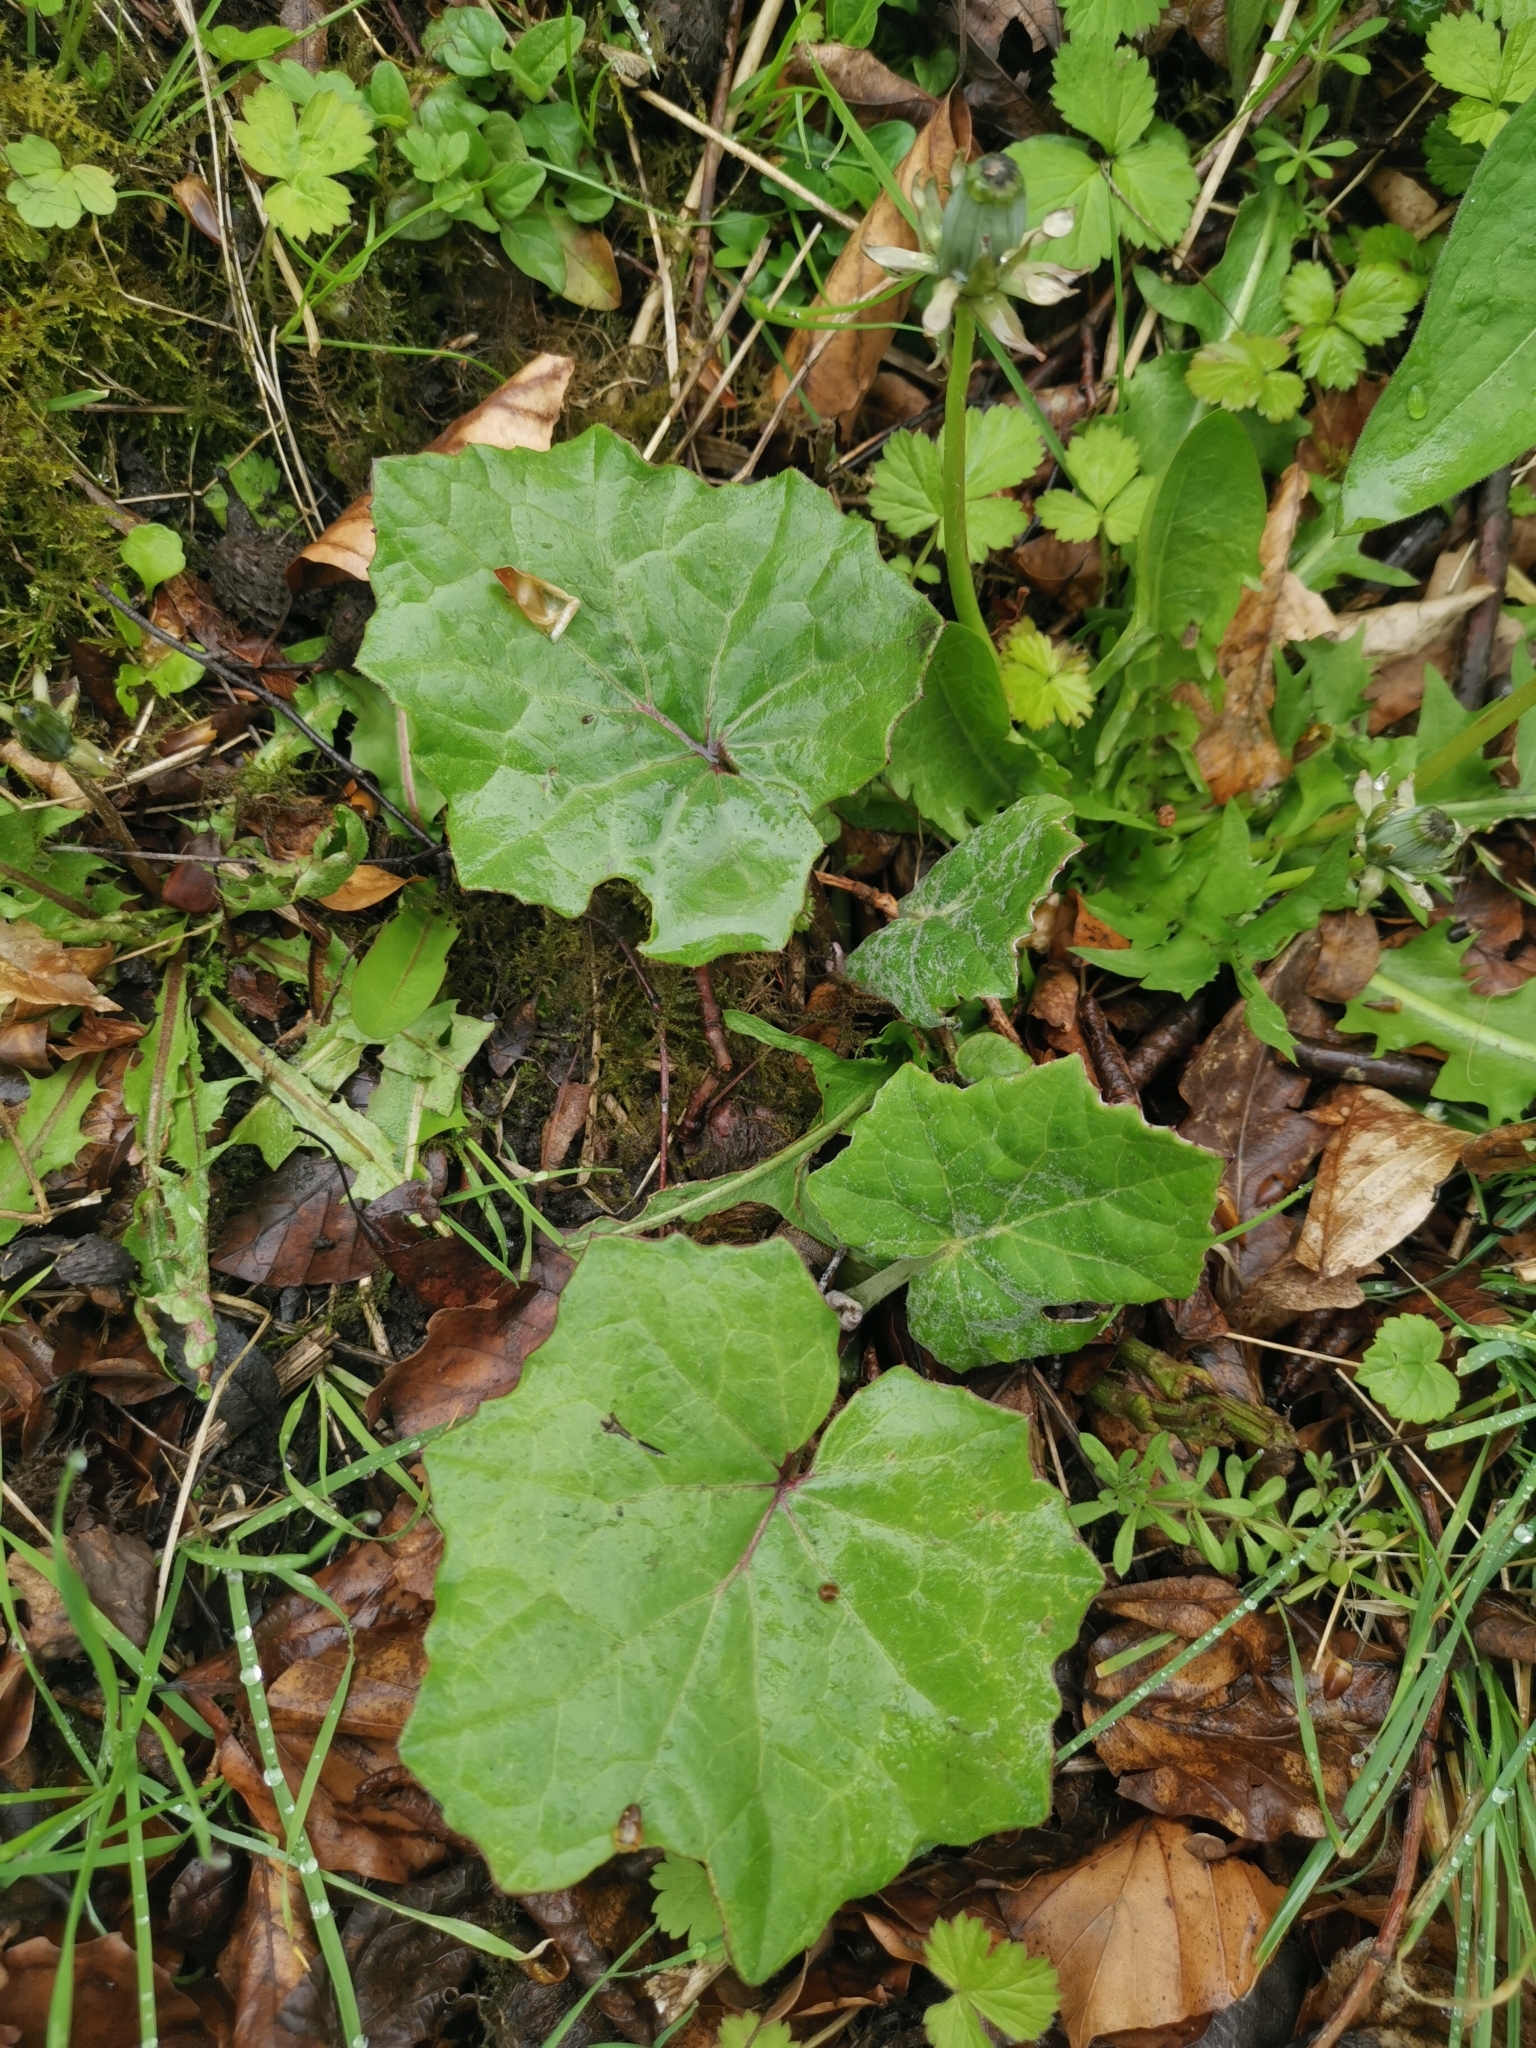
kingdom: Plantae
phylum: Tracheophyta
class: Magnoliopsida
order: Asterales
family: Asteraceae
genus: Tussilago
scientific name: Tussilago farfara
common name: Coltsfoot
